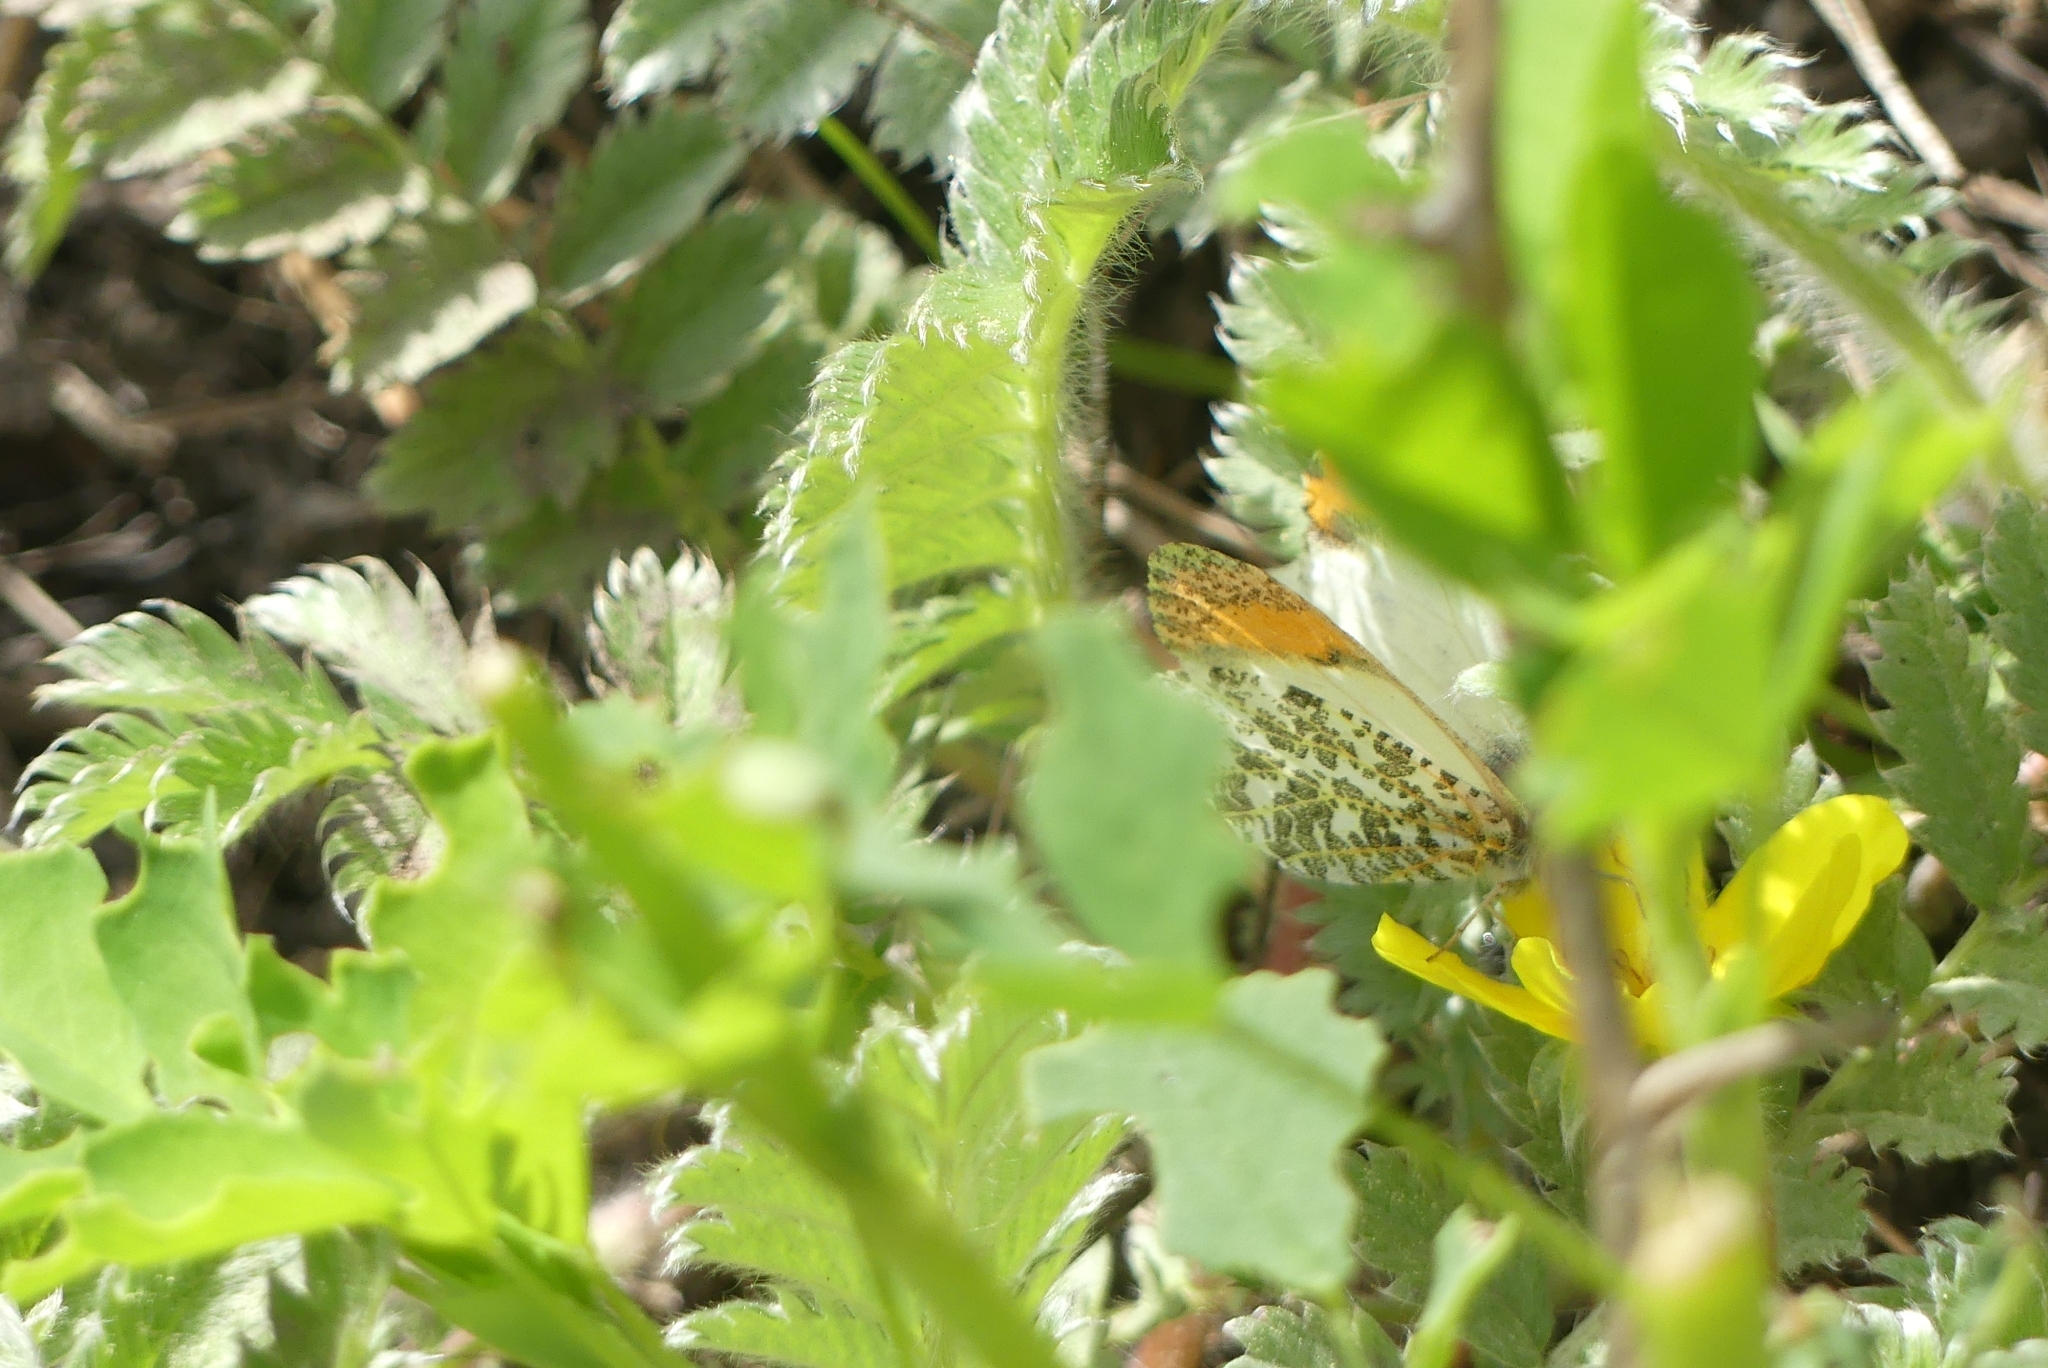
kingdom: Animalia
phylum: Arthropoda
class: Insecta
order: Lepidoptera
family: Pieridae
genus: Anthocharis
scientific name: Anthocharis julia
